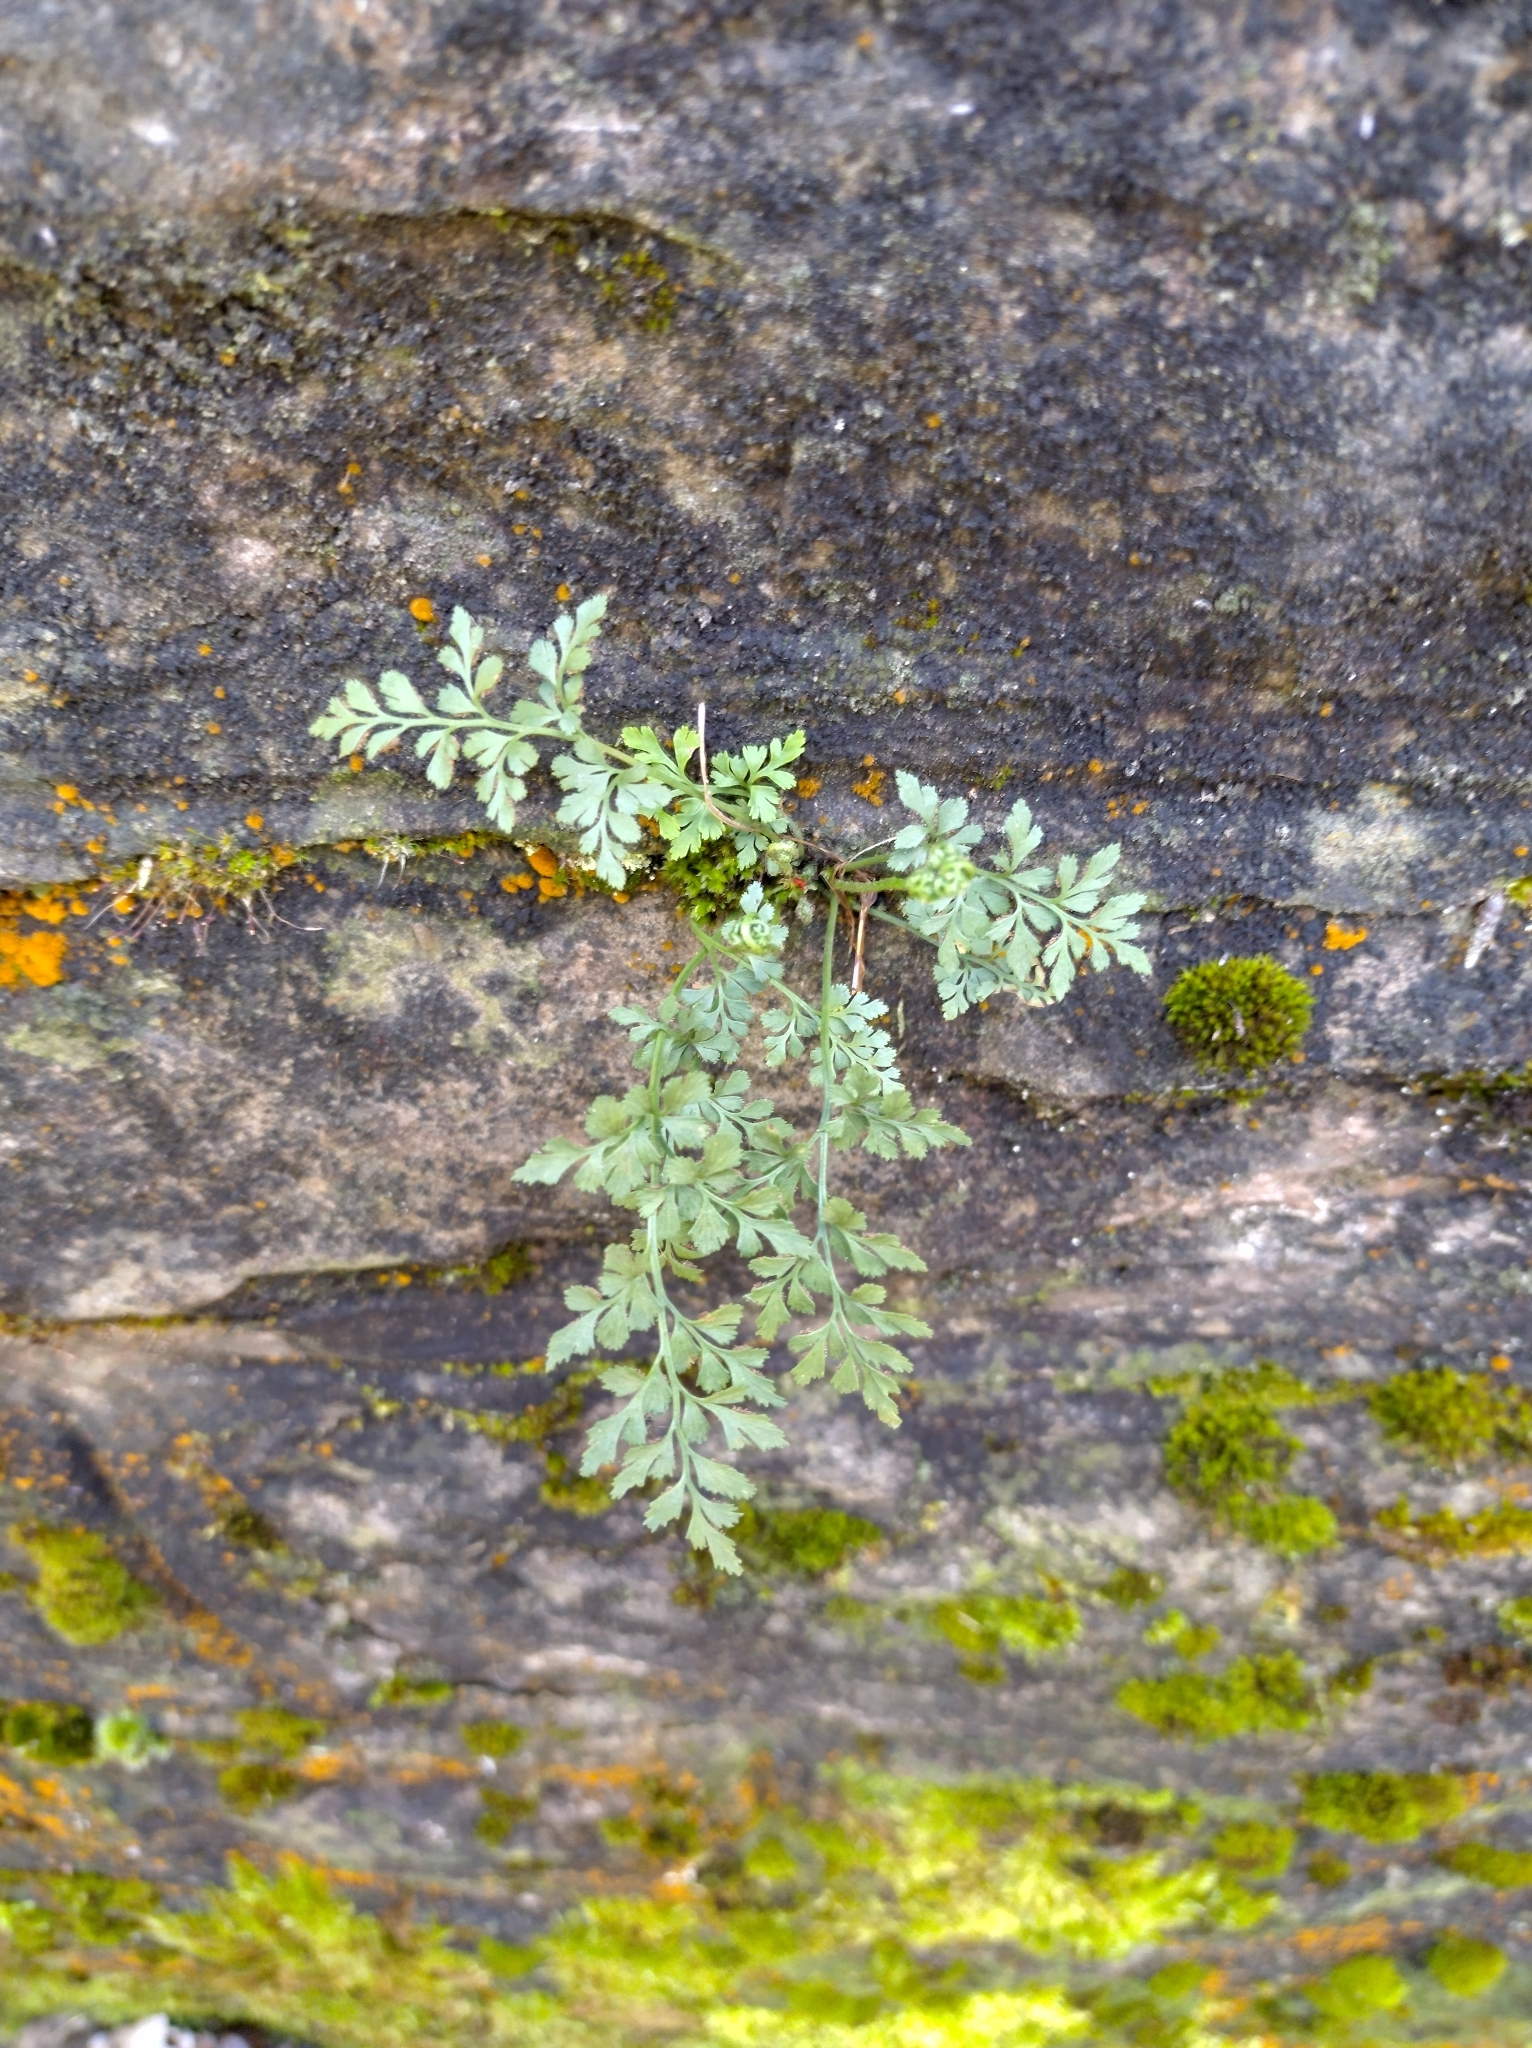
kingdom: Plantae
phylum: Tracheophyta
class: Polypodiopsida
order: Polypodiales
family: Aspleniaceae
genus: Asplenium
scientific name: Asplenium ruta-muraria
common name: Wall-rue
